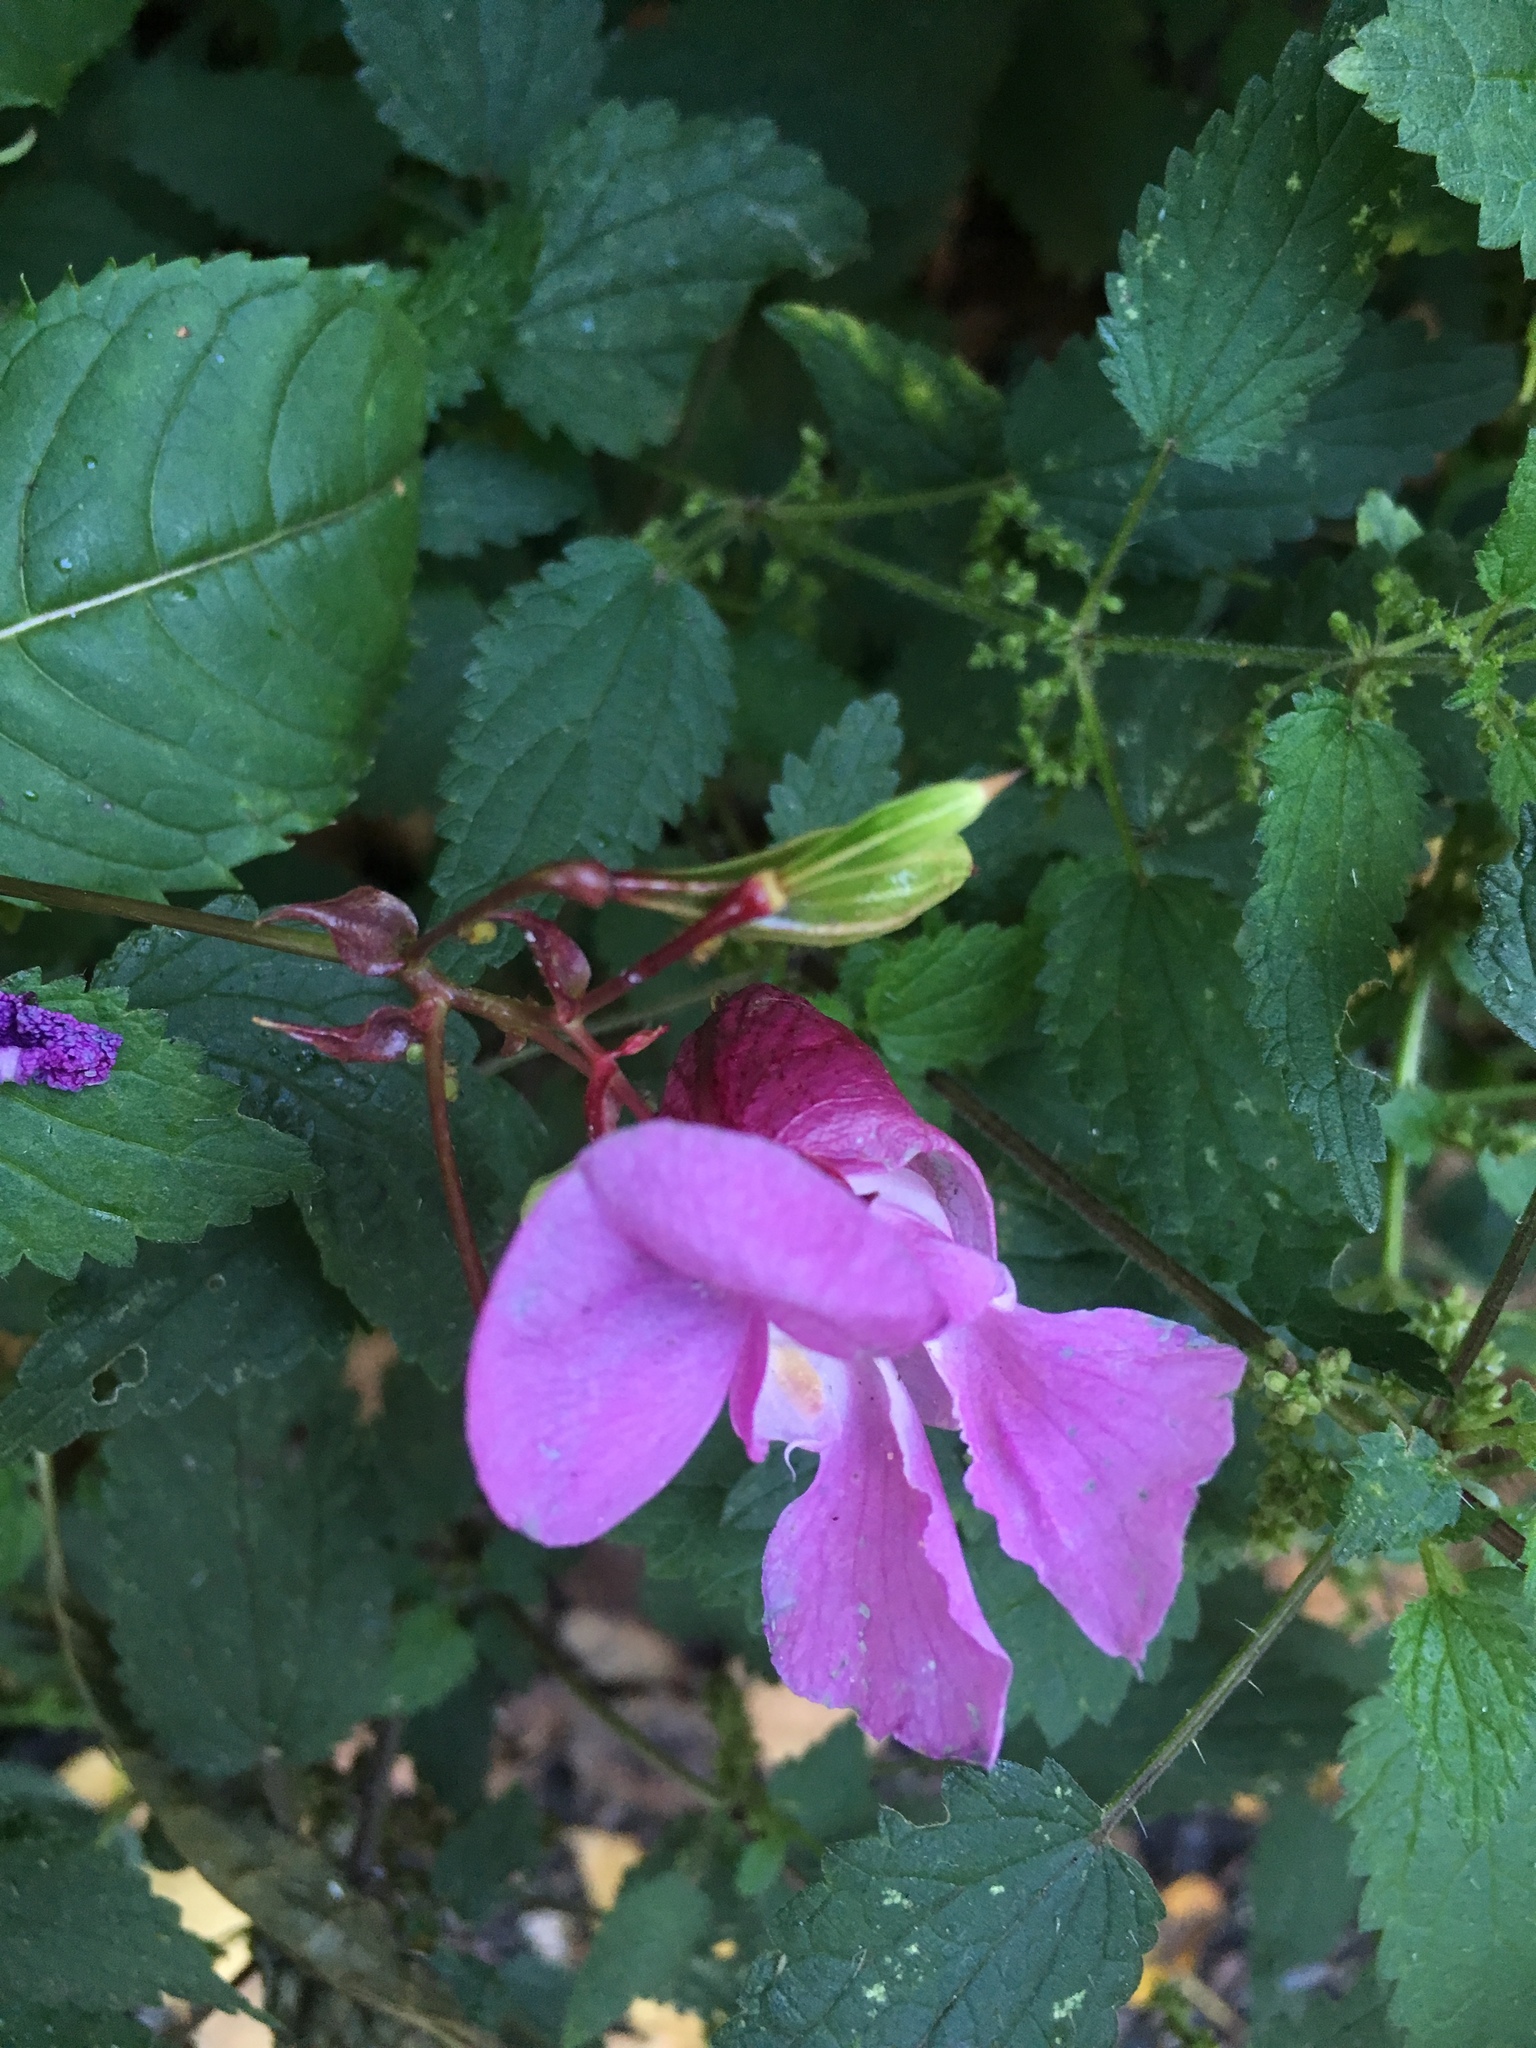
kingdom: Plantae
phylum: Tracheophyta
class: Magnoliopsida
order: Ericales
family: Balsaminaceae
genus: Impatiens
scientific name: Impatiens glandulifera
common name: Himalayan balsam
